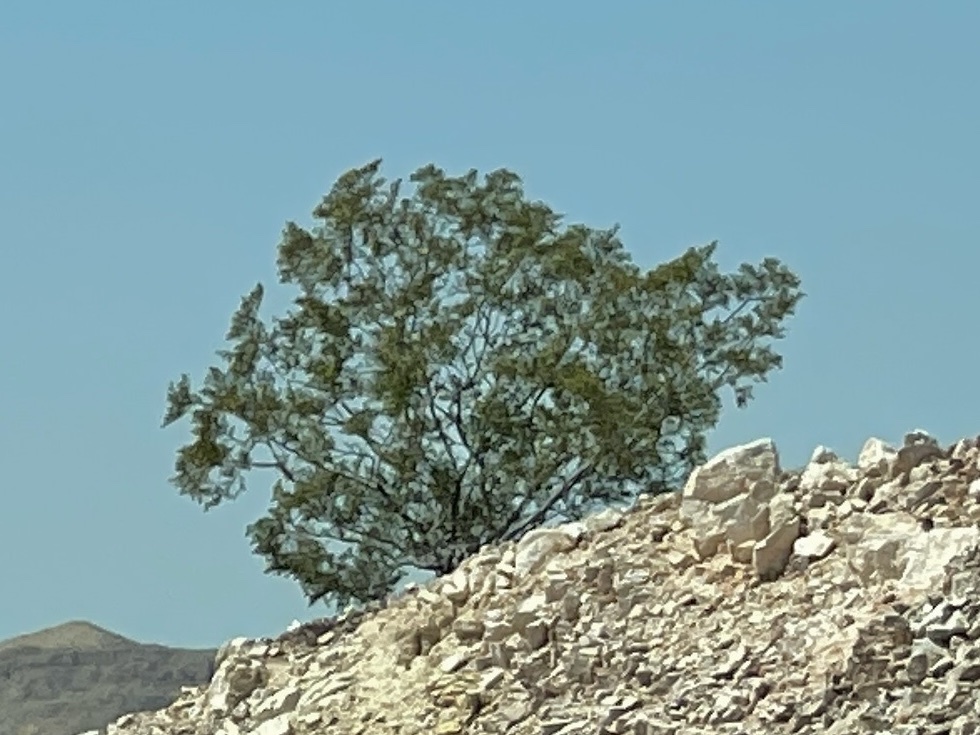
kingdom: Plantae
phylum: Tracheophyta
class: Magnoliopsida
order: Zygophyllales
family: Zygophyllaceae
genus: Larrea
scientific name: Larrea tridentata
